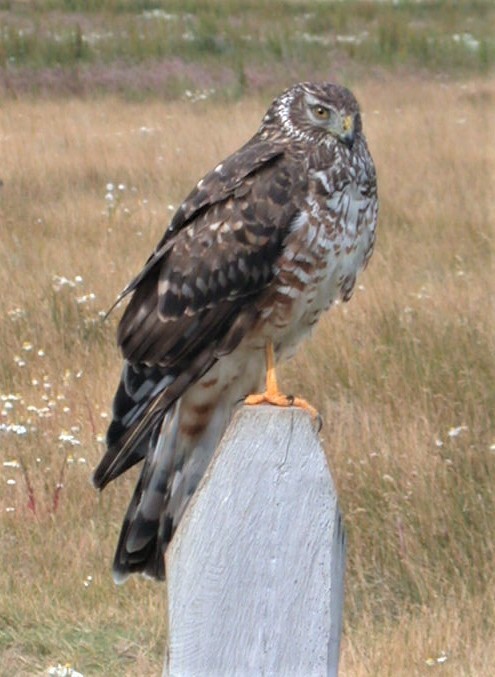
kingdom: Animalia
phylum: Chordata
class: Aves
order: Accipitriformes
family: Accipitridae
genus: Circus
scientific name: Circus cinereus
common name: Cinereous harrier
